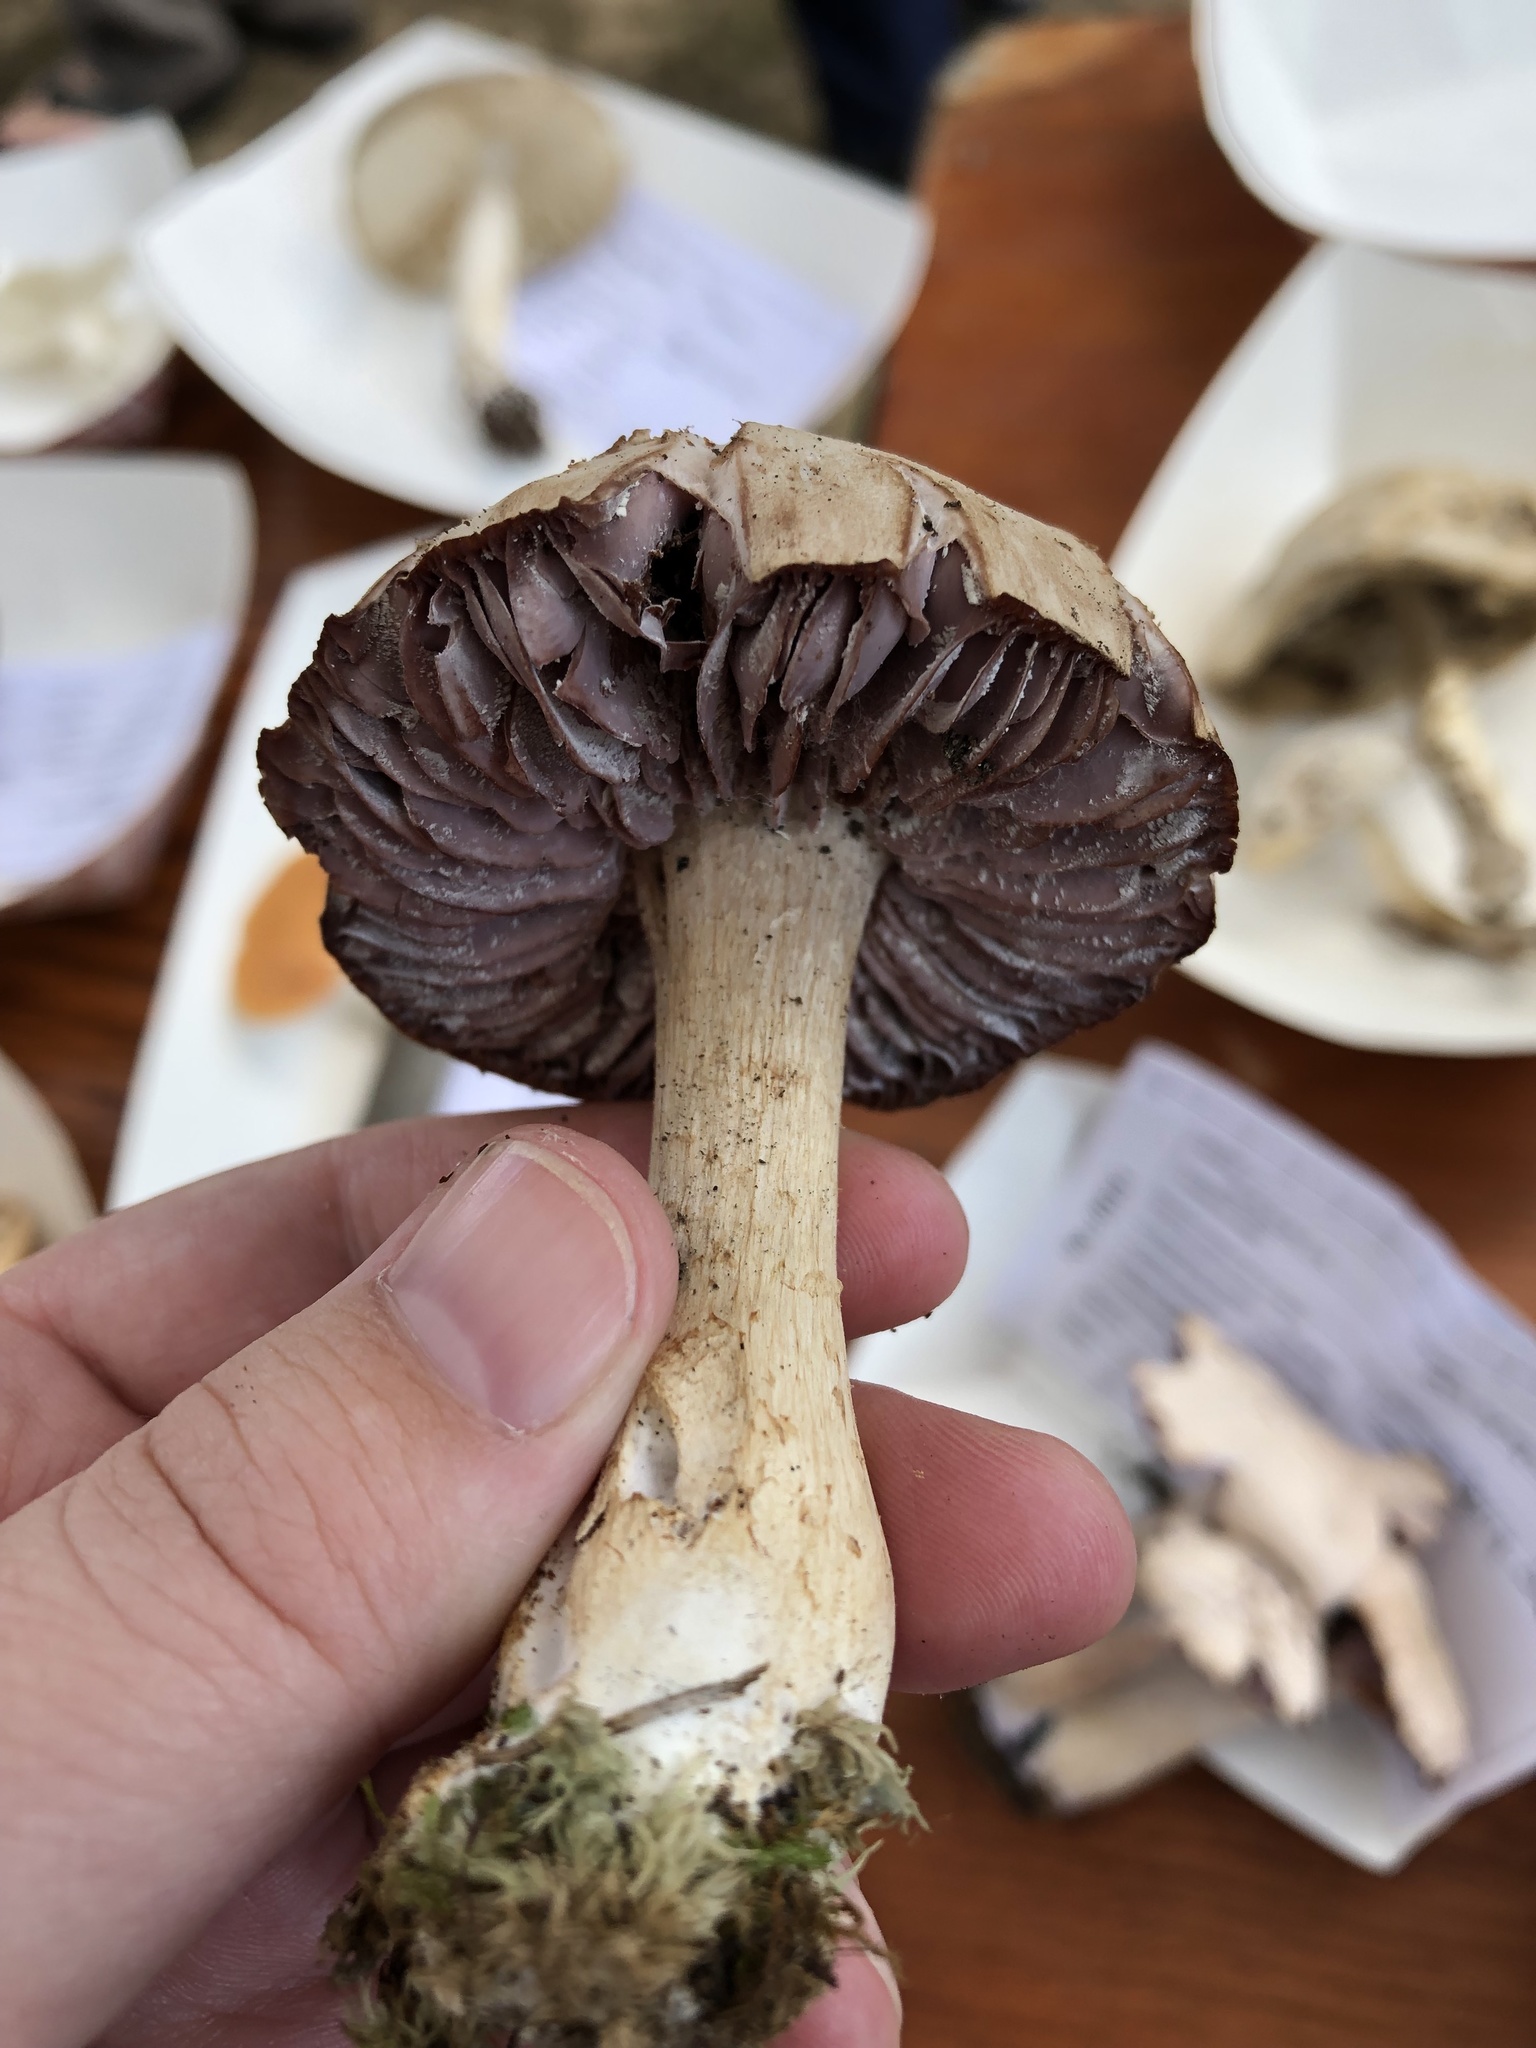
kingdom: Fungi
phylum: Basidiomycota
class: Agaricomycetes
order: Agaricales
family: Hydnangiaceae
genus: Laccaria
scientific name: Laccaria ochropurpurea
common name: Purple laccaria
